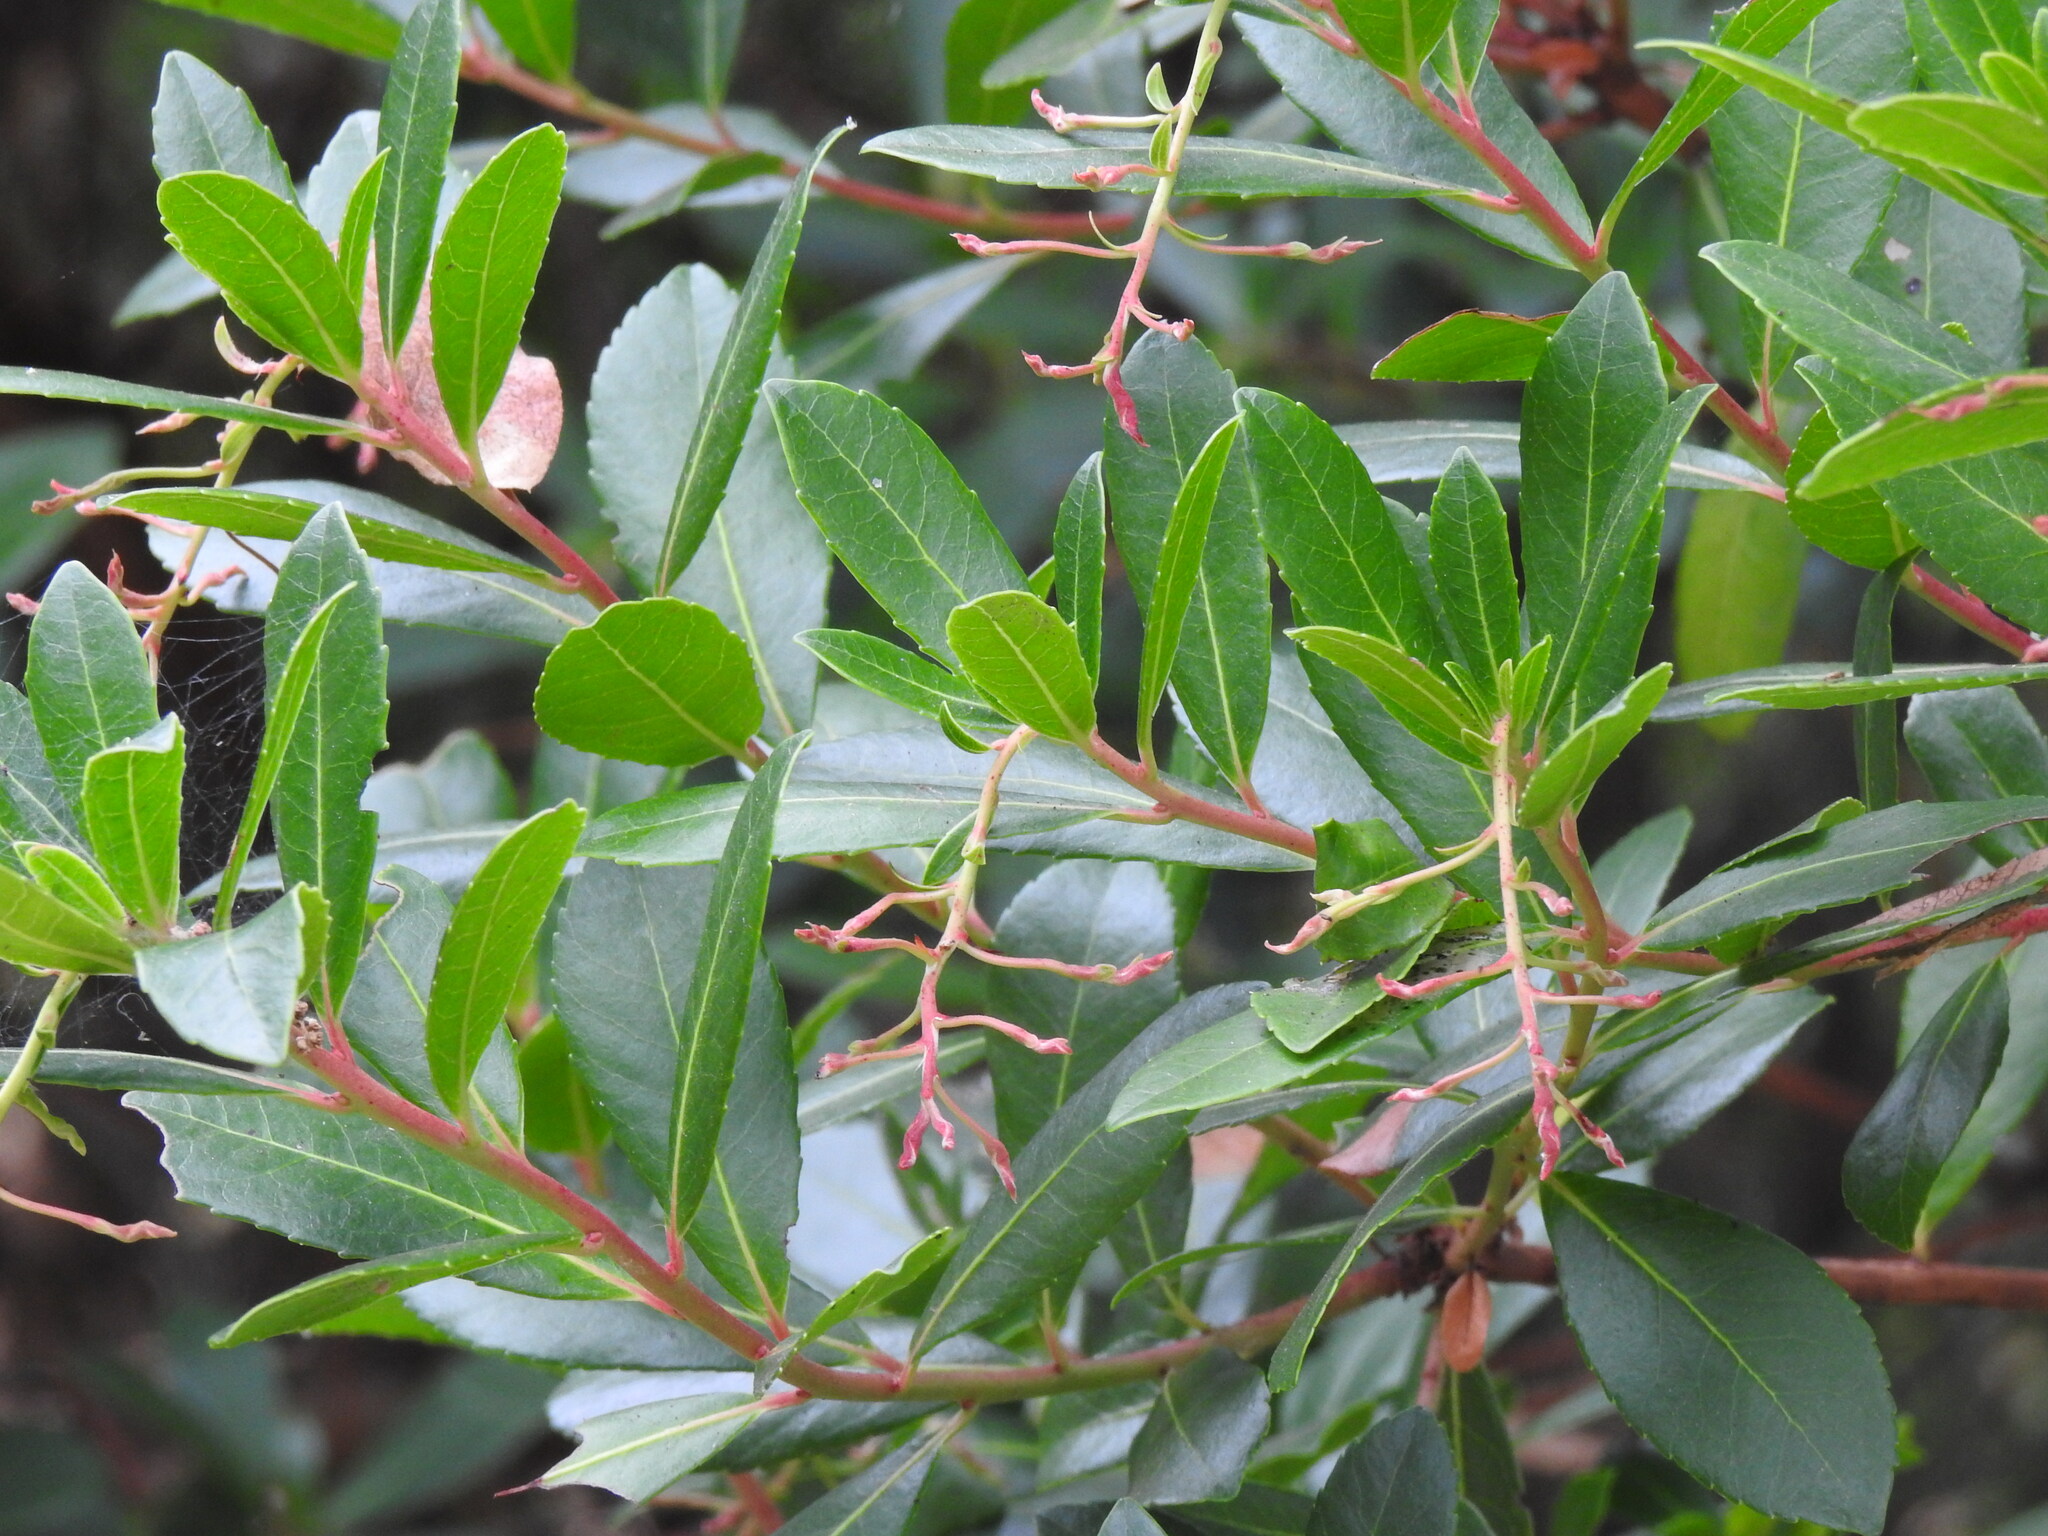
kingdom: Plantae
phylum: Tracheophyta
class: Magnoliopsida
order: Ericales
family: Ericaceae
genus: Arbutus
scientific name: Arbutus unedo
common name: Strawberry-tree
